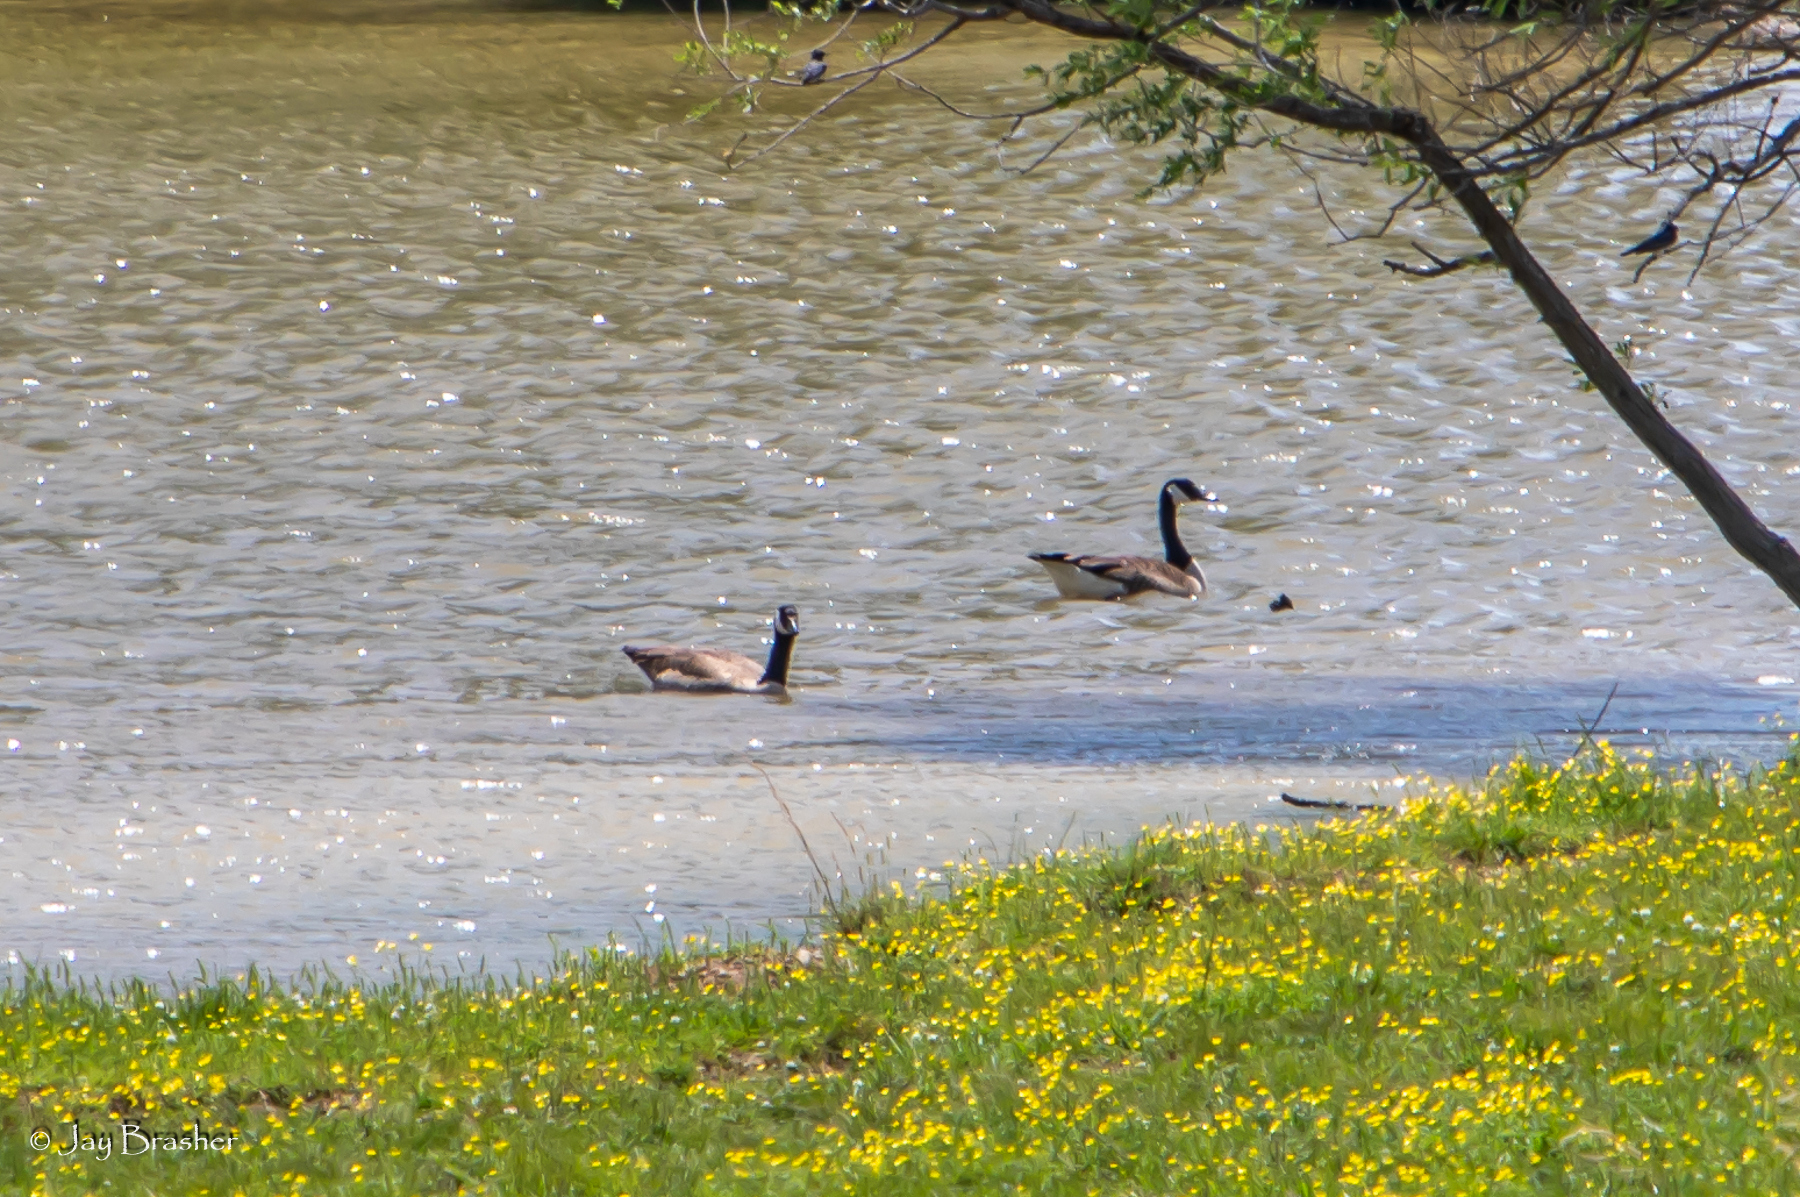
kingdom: Animalia
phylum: Chordata
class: Aves
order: Anseriformes
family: Anatidae
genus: Branta
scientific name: Branta canadensis
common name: Canada goose
